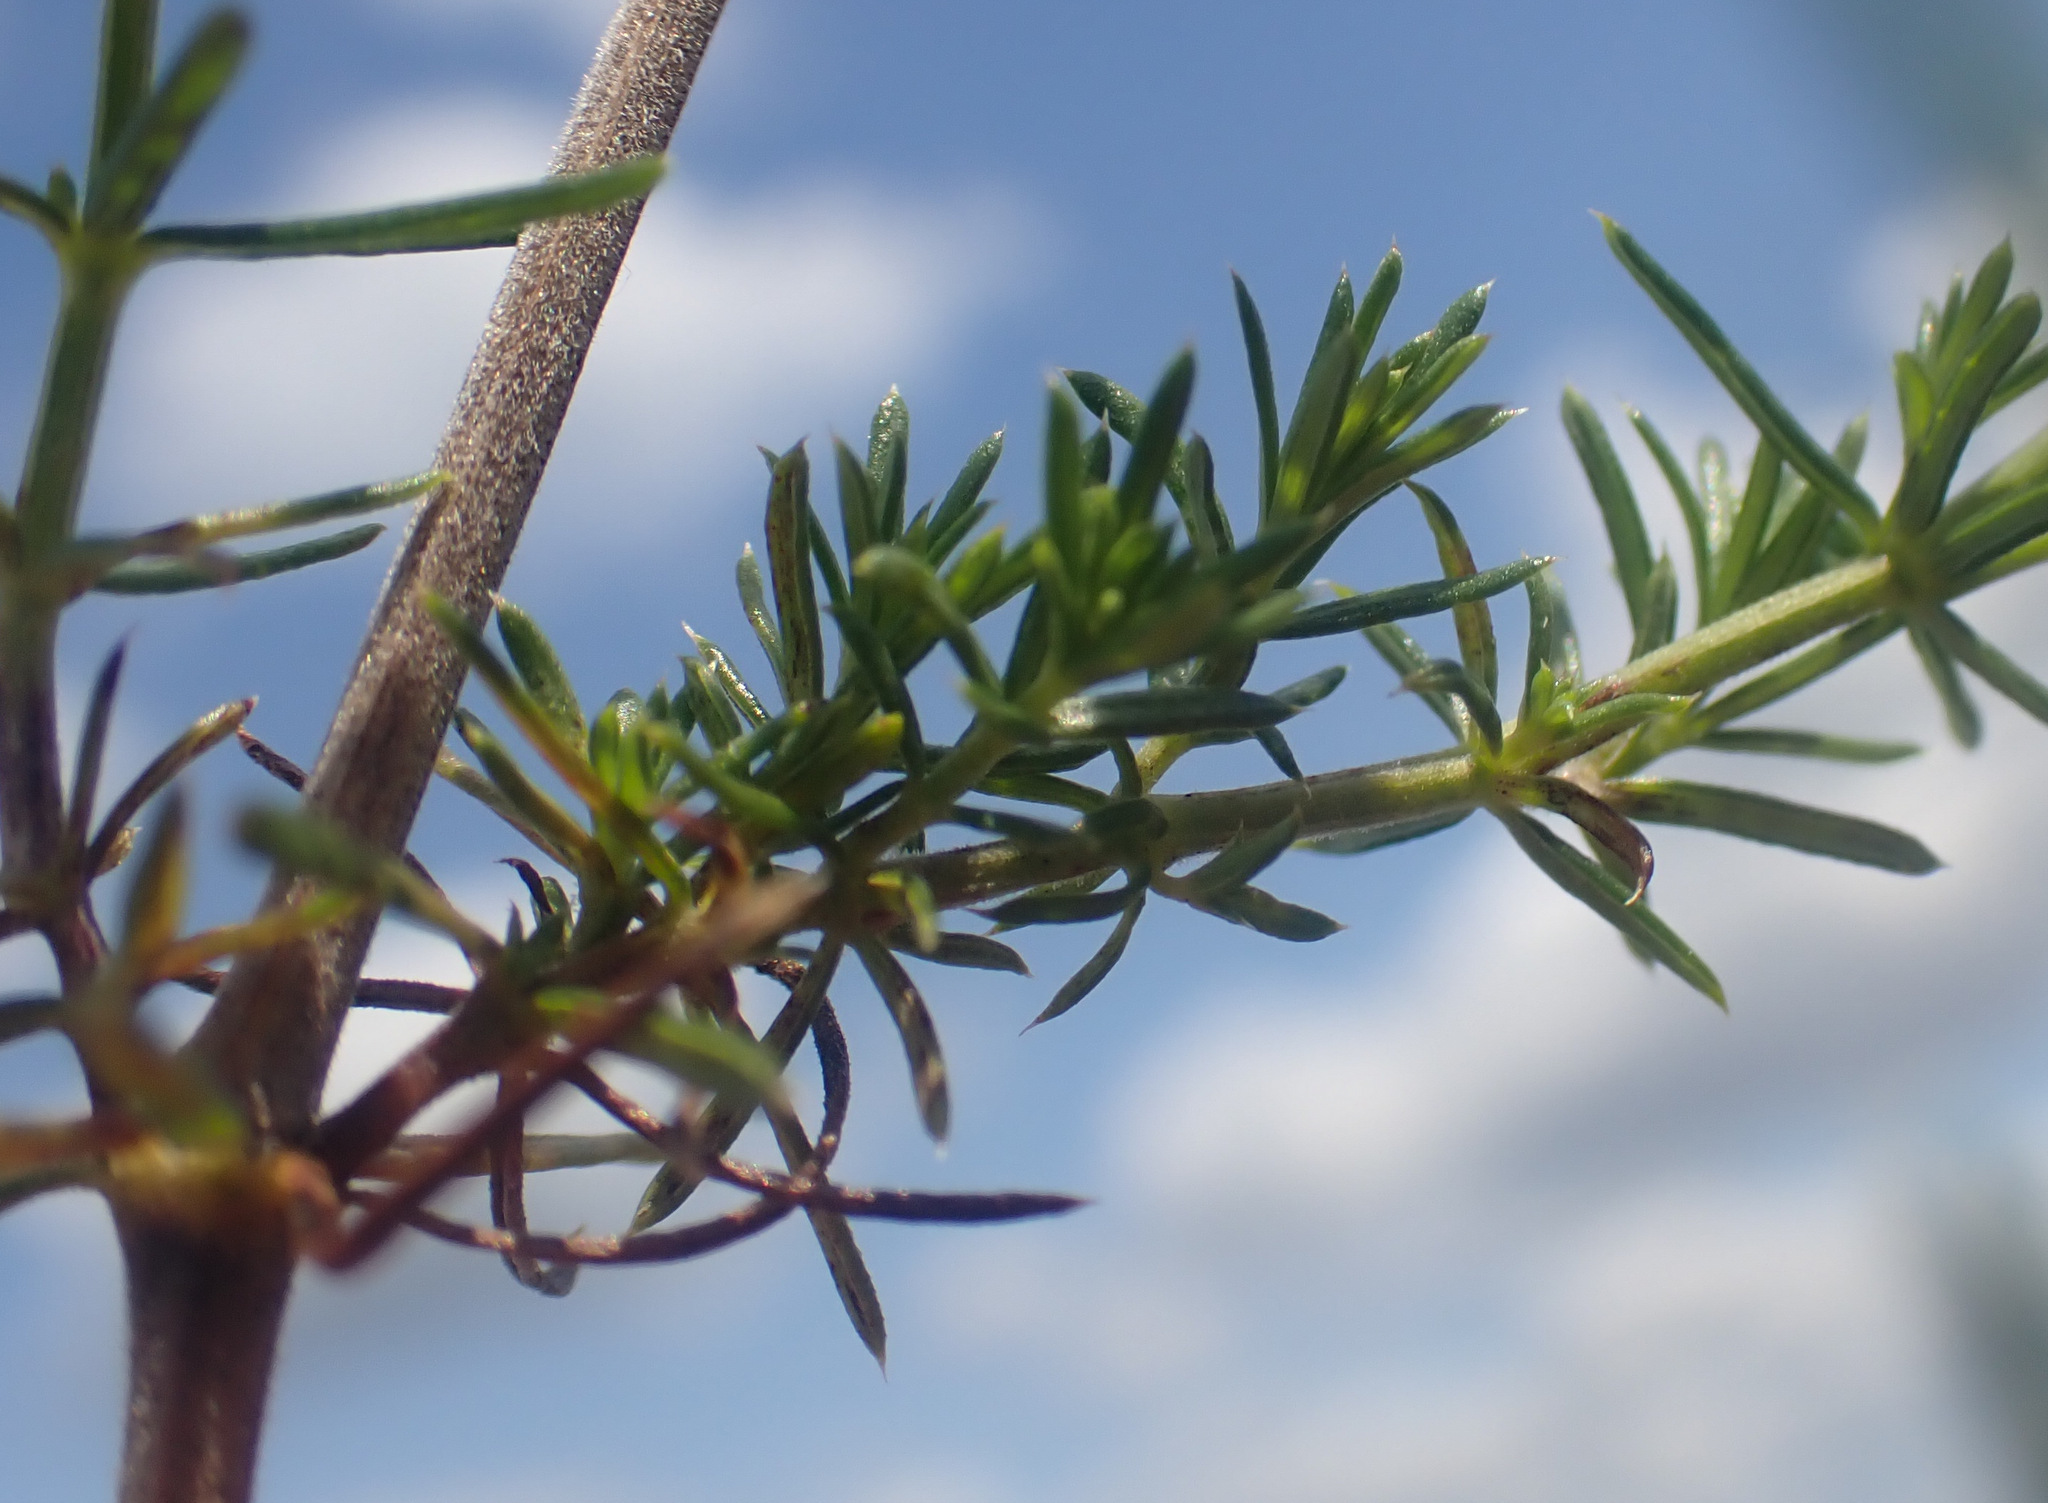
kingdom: Plantae
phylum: Tracheophyta
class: Magnoliopsida
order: Gentianales
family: Rubiaceae
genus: Galium
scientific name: Galium verum
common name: Lady's bedstraw
